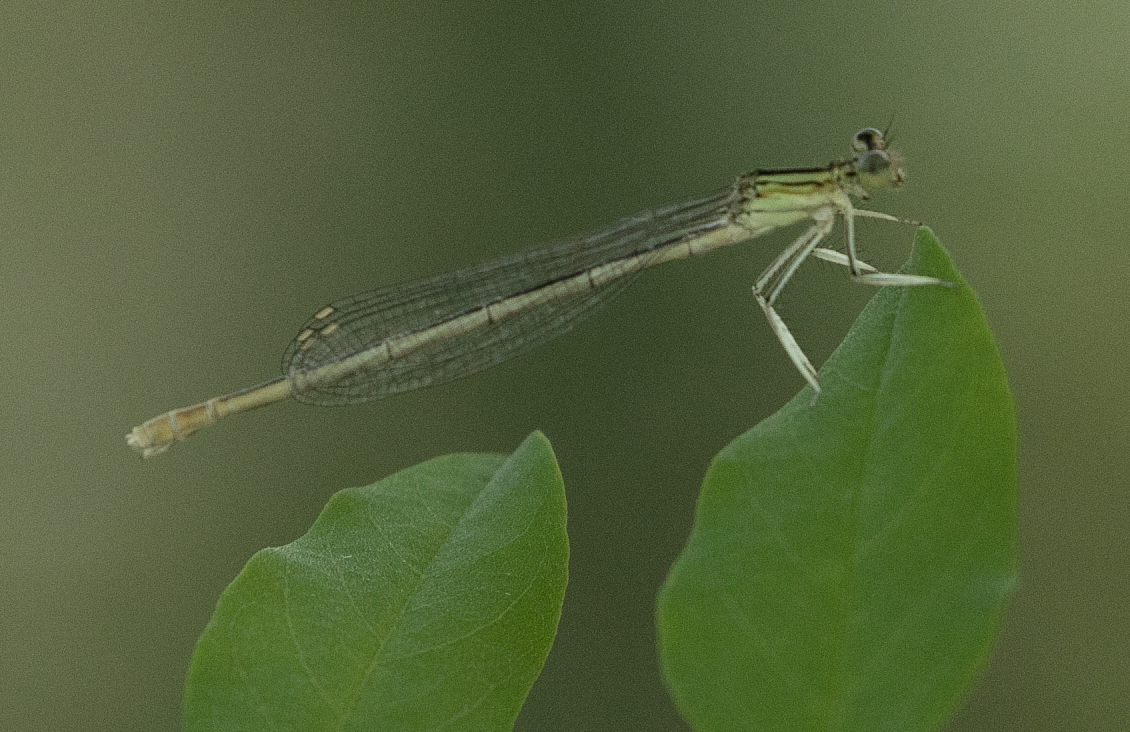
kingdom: Animalia
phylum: Arthropoda
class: Insecta
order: Odonata
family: Platycnemididae
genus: Platycnemis
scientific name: Platycnemis pennipes
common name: White-legged damselfly
